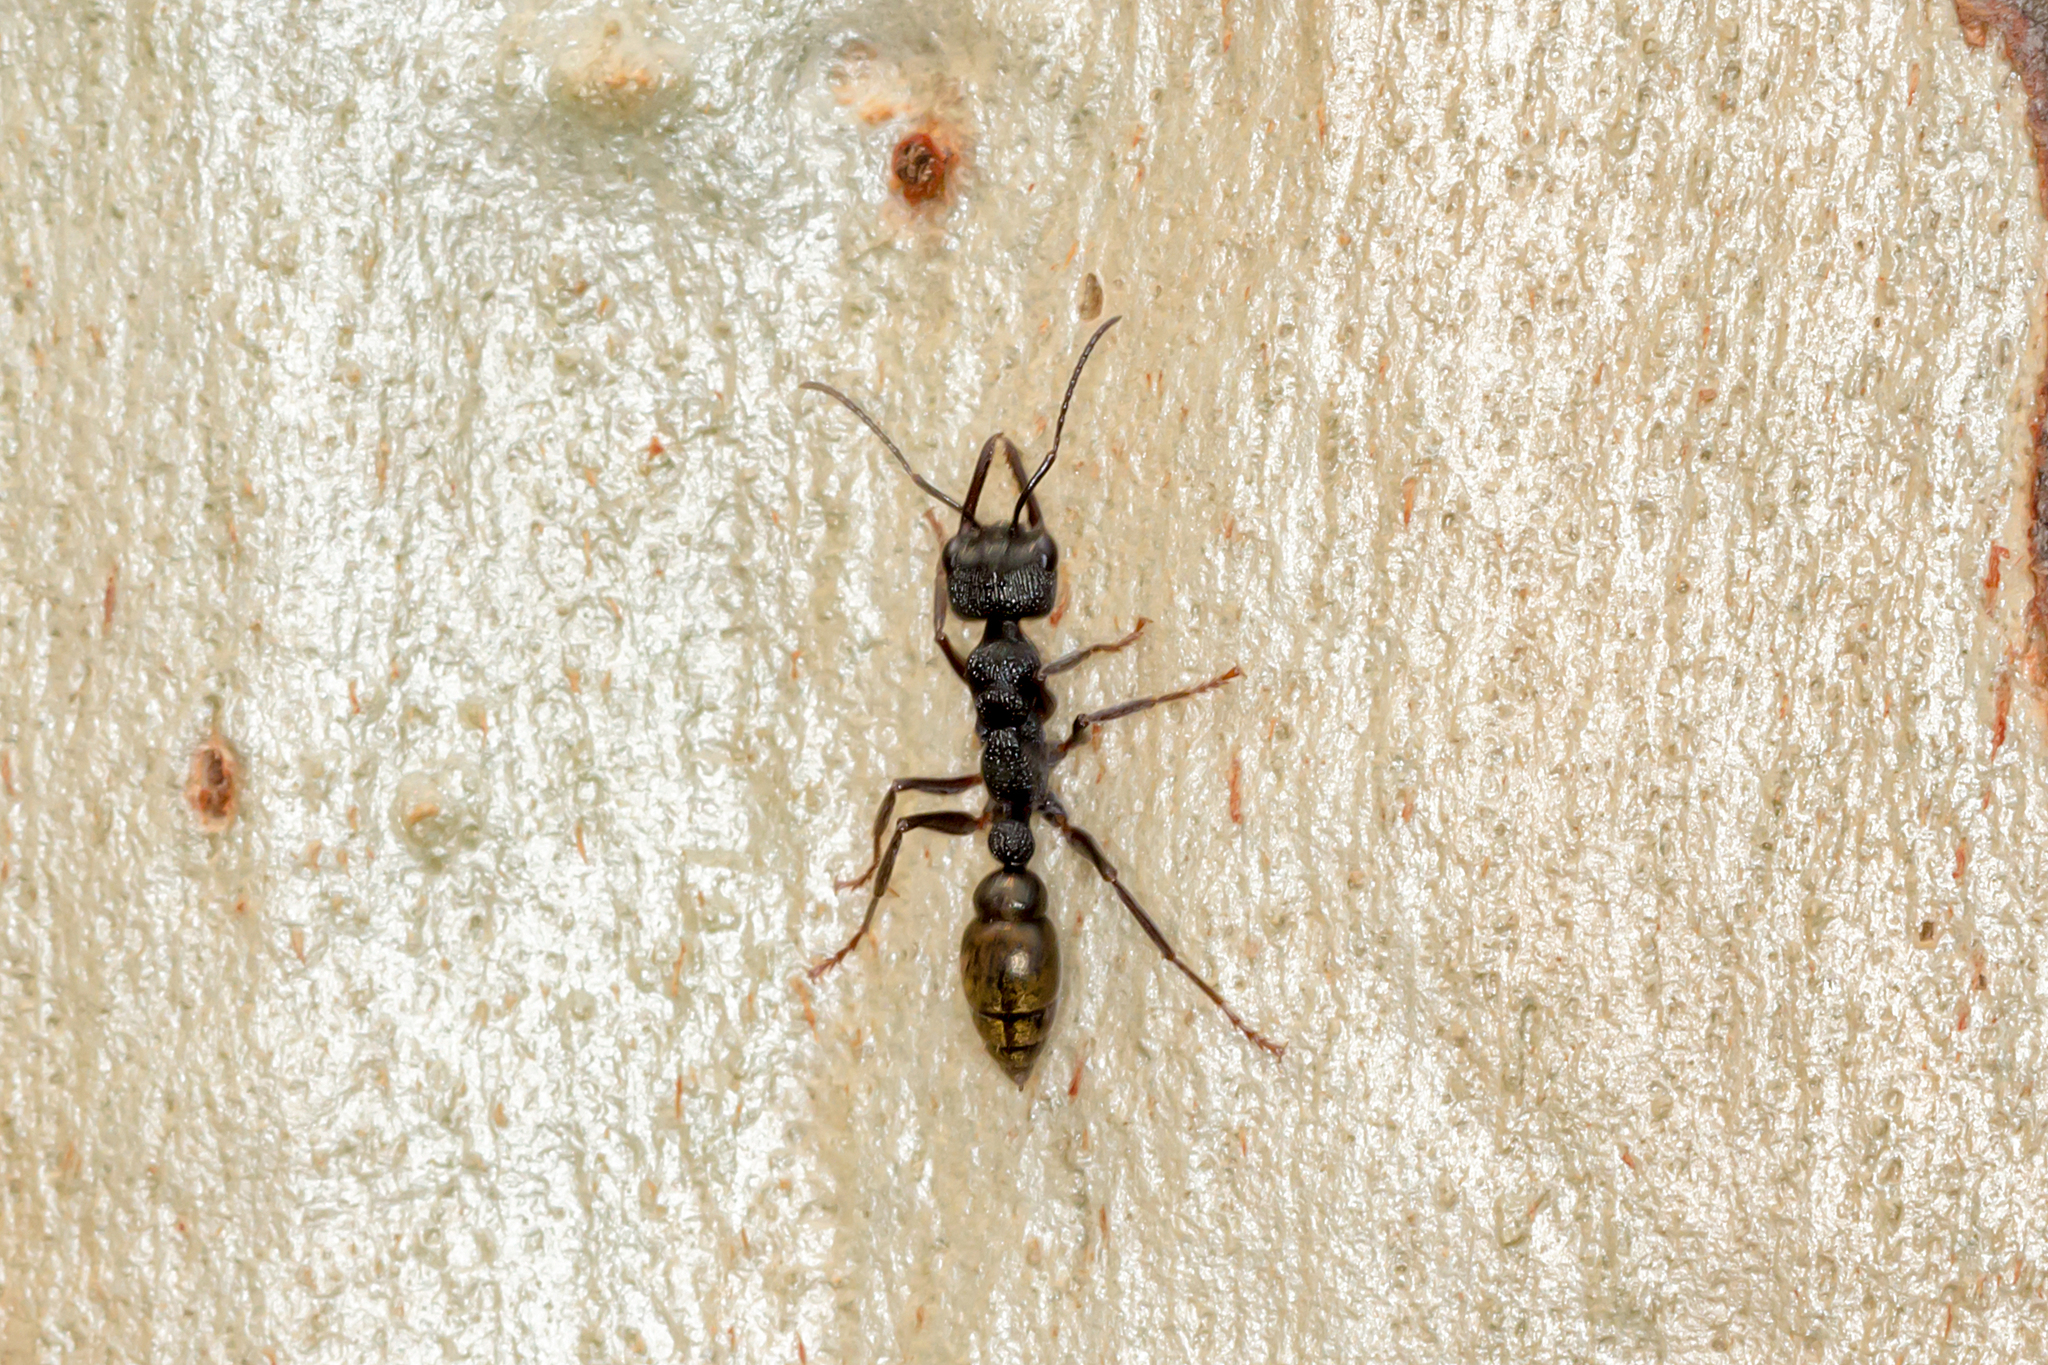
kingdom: Animalia
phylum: Arthropoda
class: Insecta
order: Hymenoptera
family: Formicidae
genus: Myrmecia
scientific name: Myrmecia piliventris
